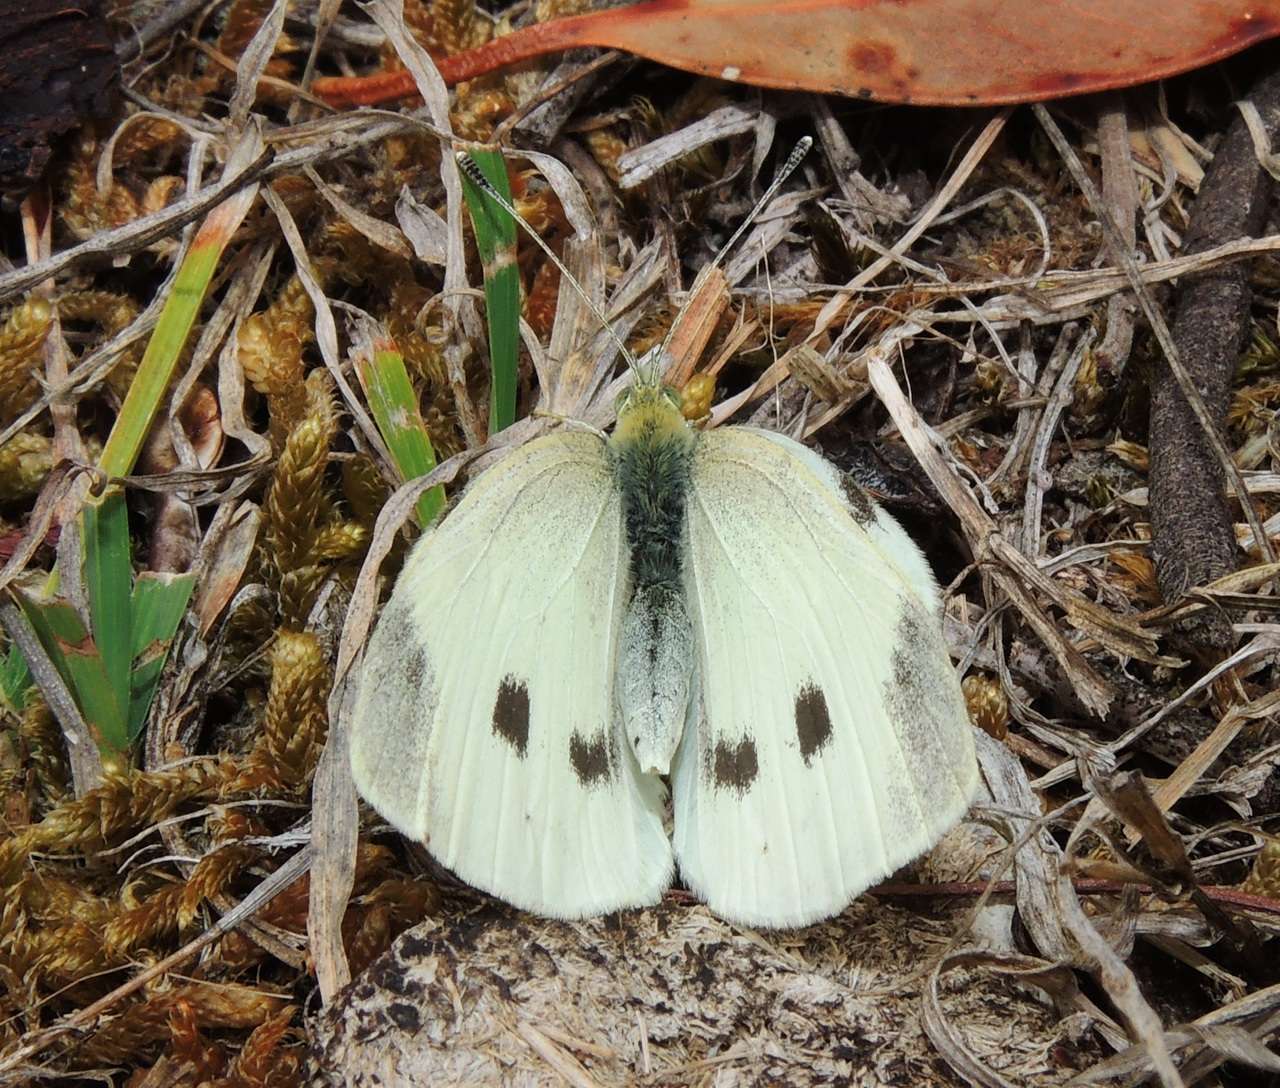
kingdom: Animalia
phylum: Arthropoda
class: Insecta
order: Lepidoptera
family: Pieridae
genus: Pieris
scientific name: Pieris rapae
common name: Small white
